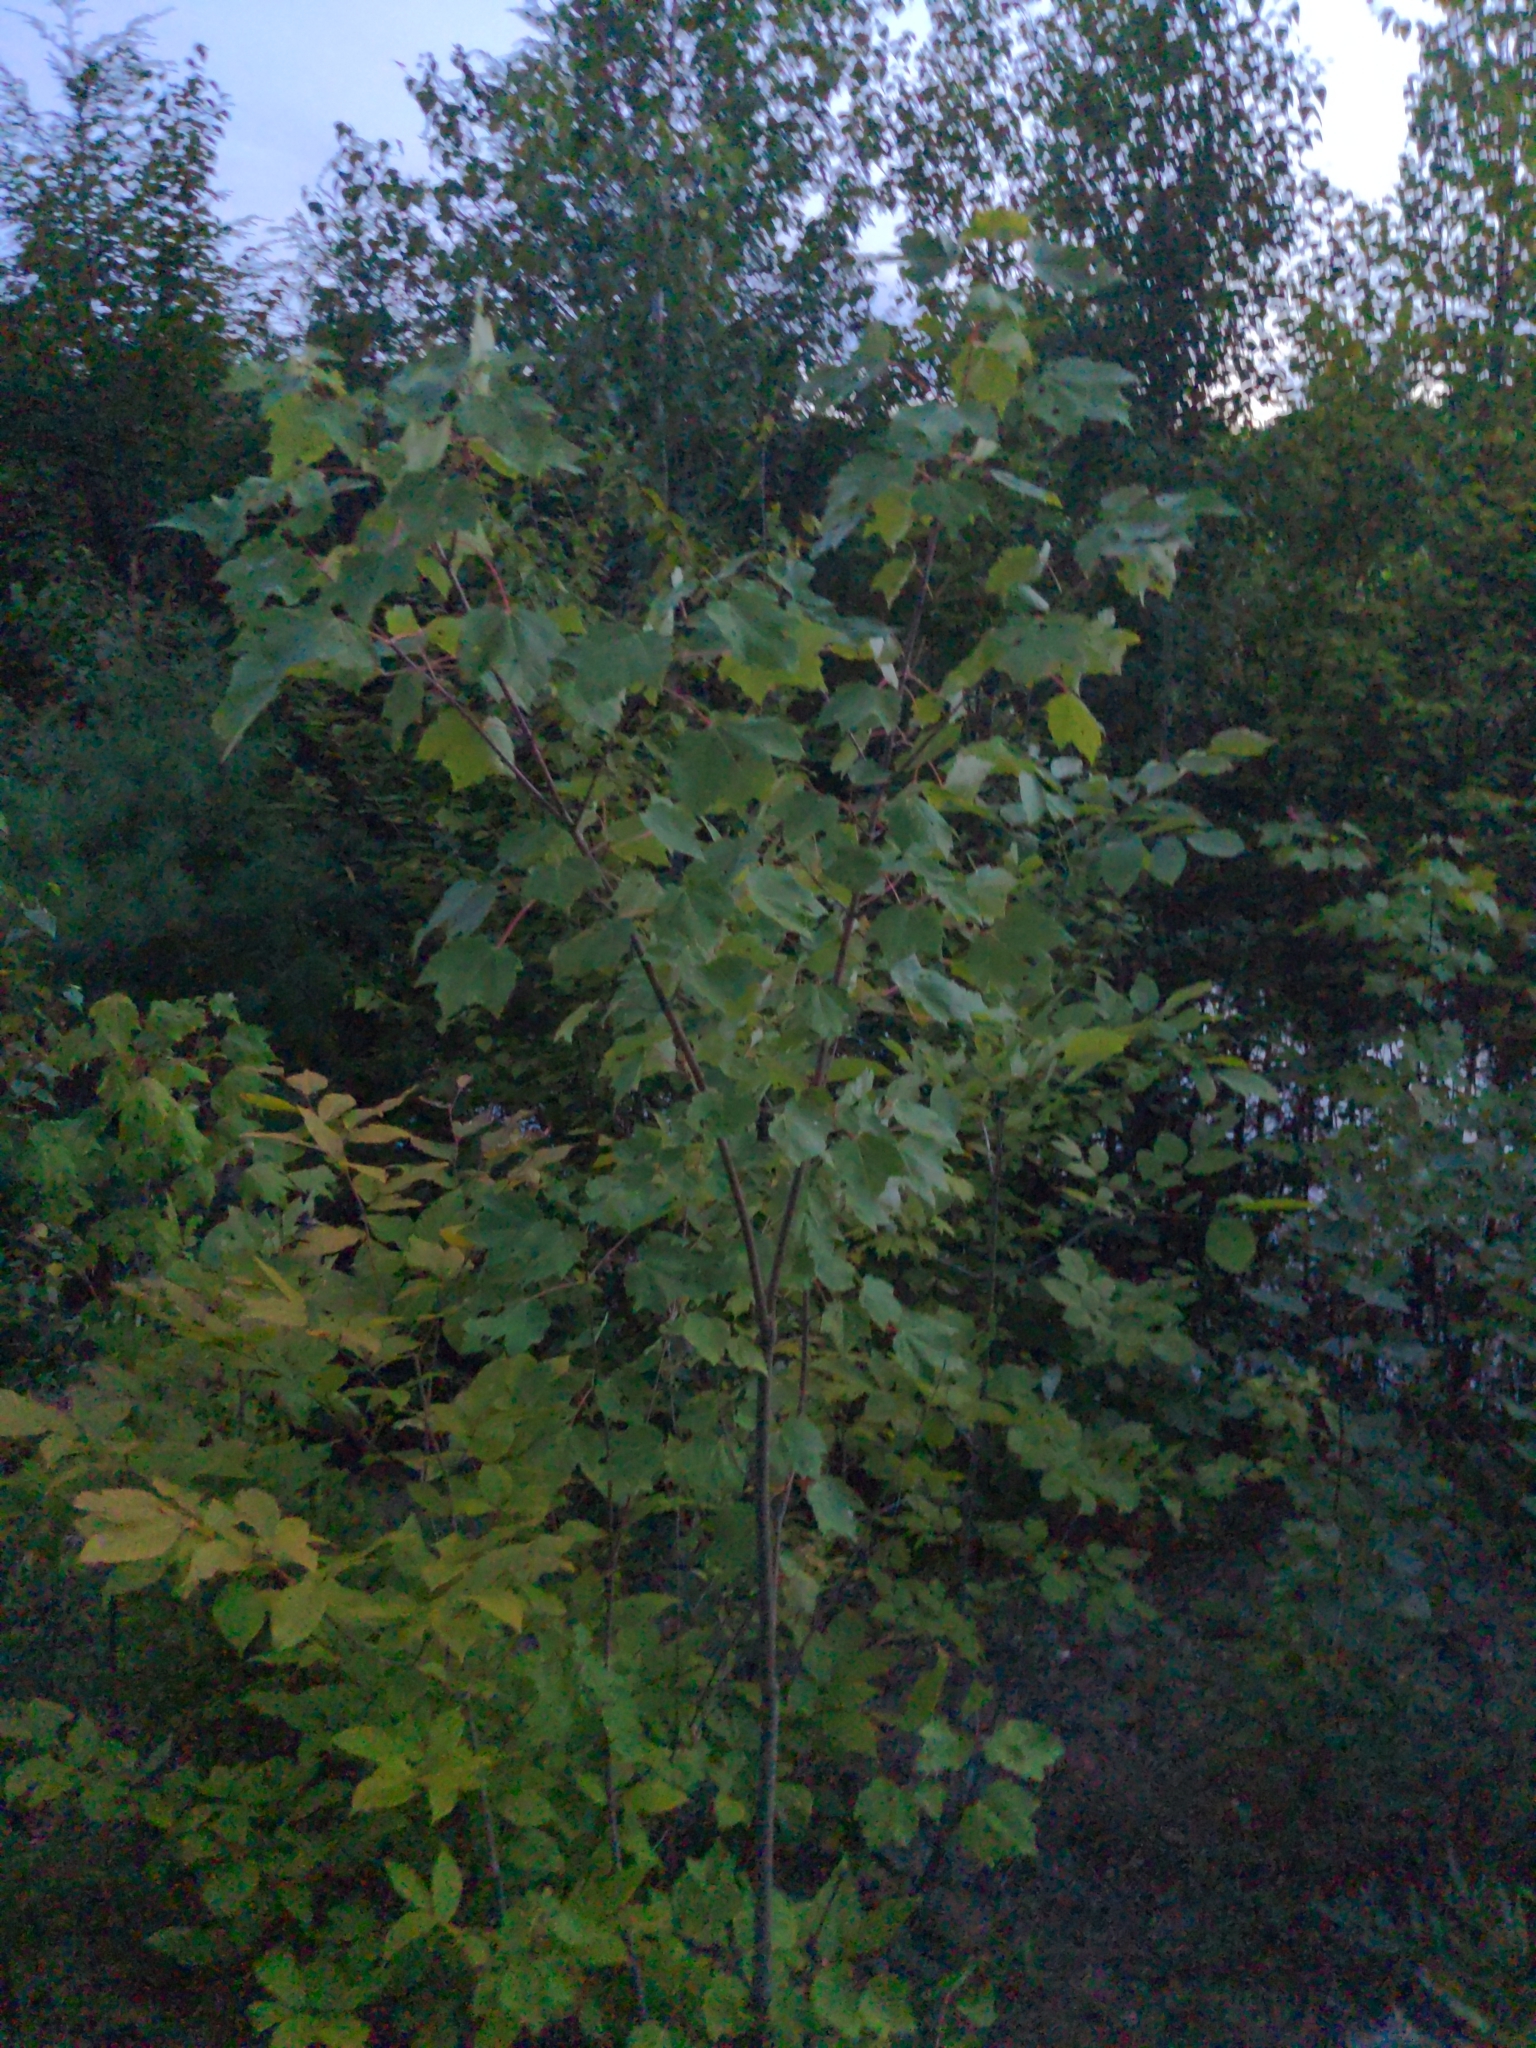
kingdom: Plantae
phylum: Tracheophyta
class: Magnoliopsida
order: Sapindales
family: Sapindaceae
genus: Acer
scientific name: Acer rubrum
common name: Red maple
